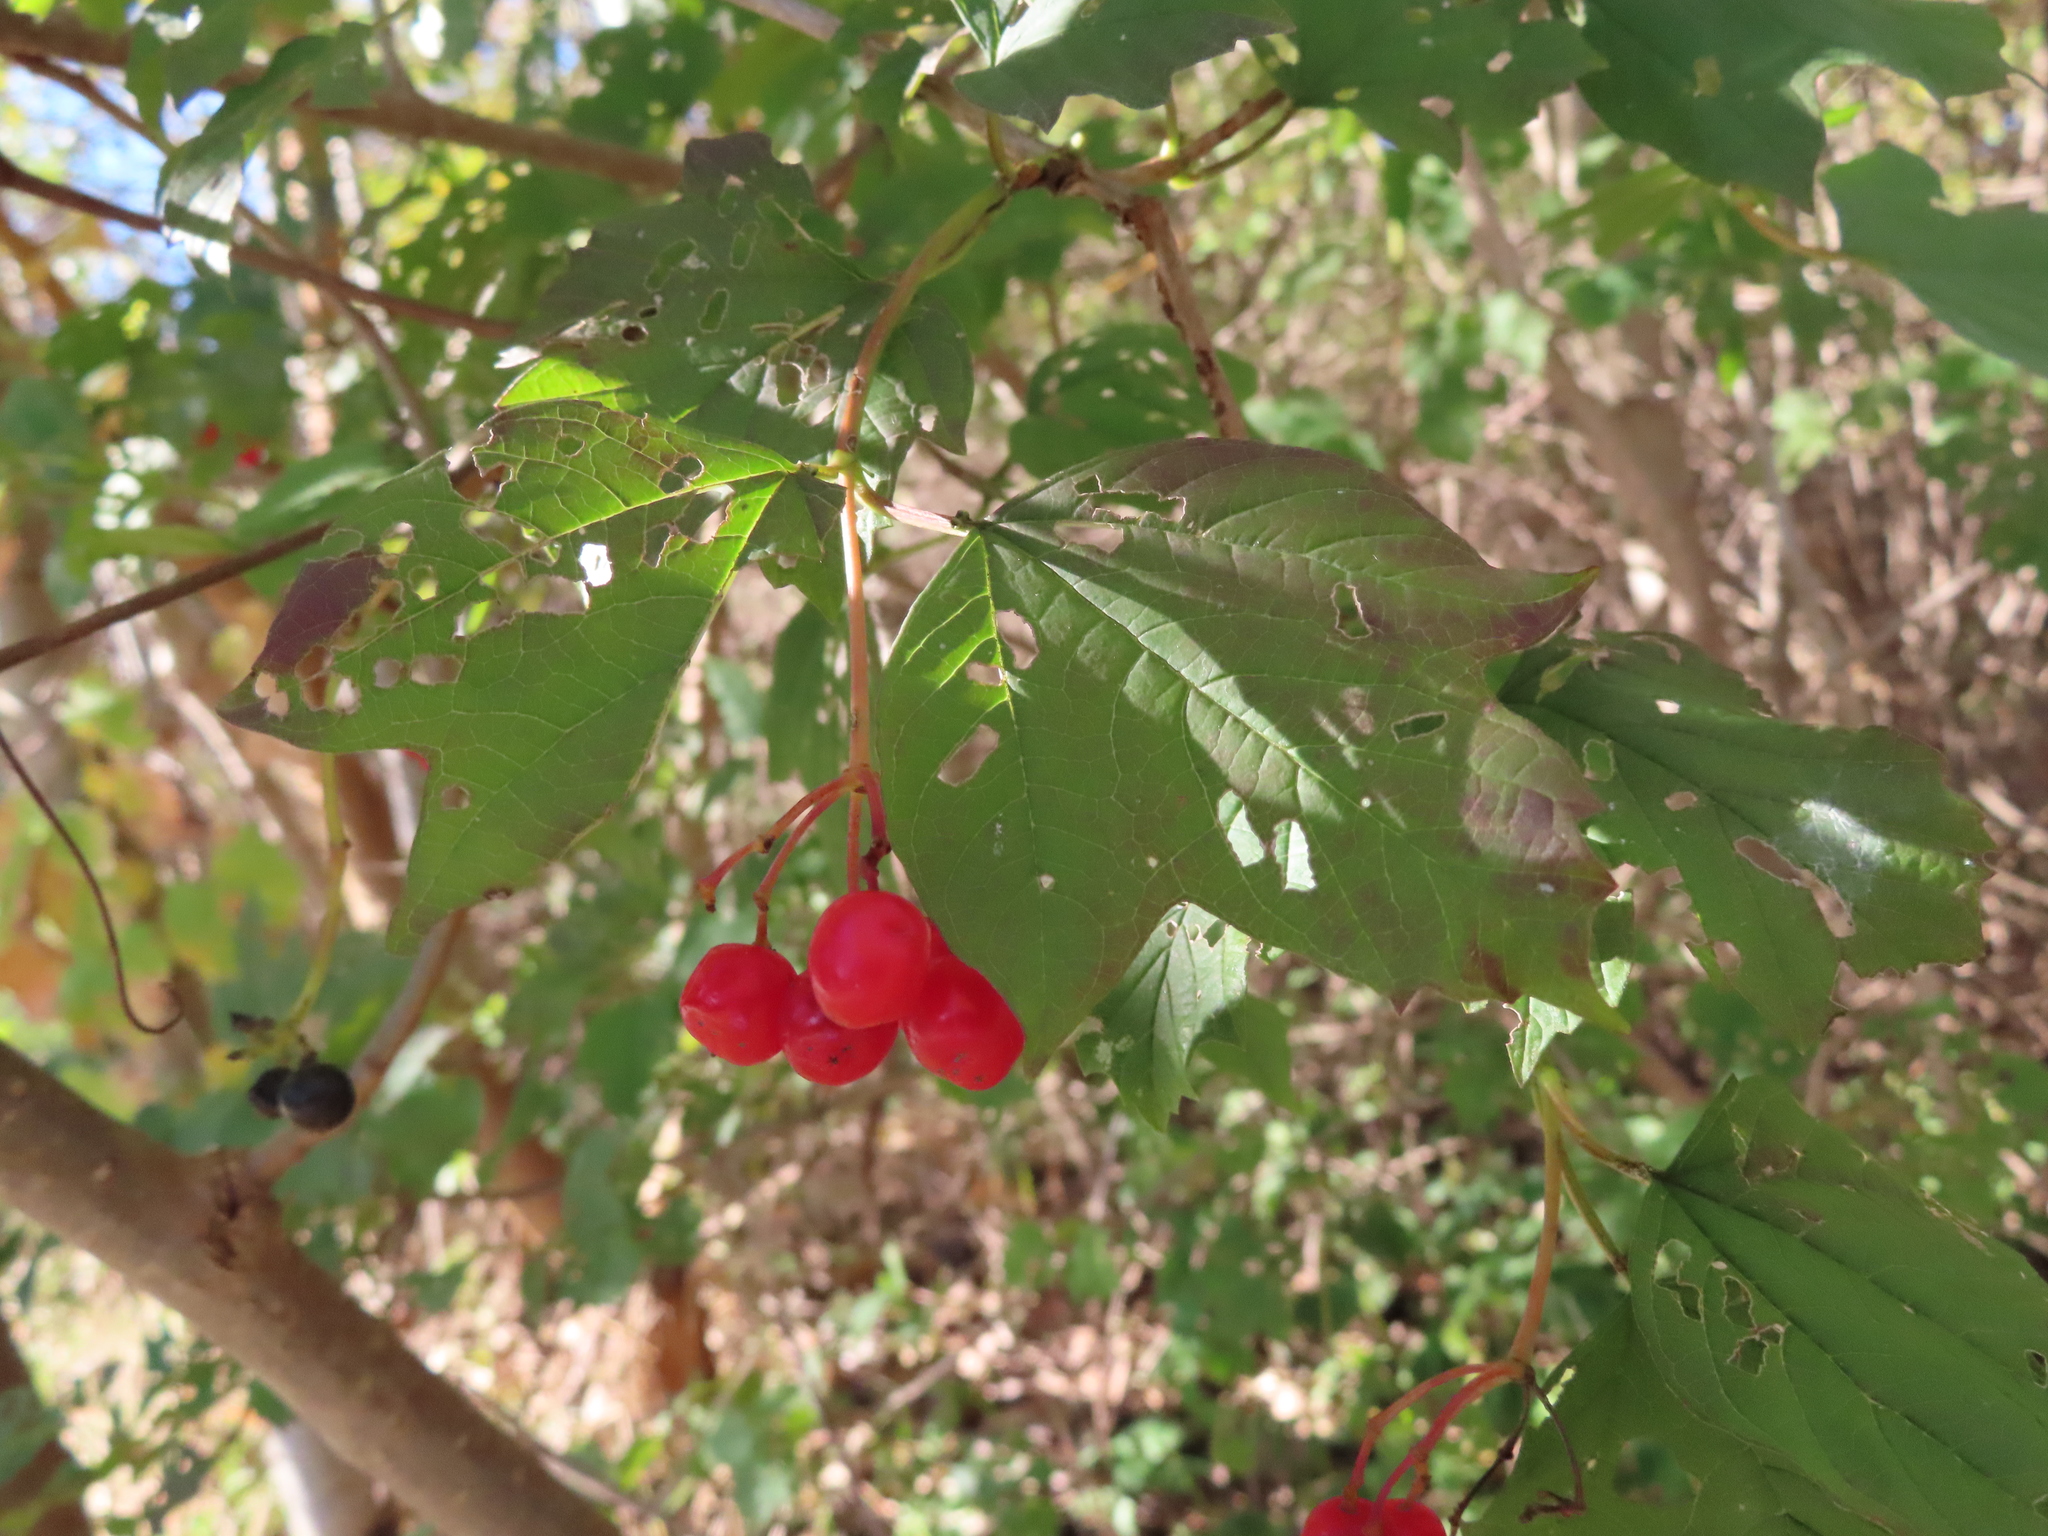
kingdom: Plantae
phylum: Tracheophyta
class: Magnoliopsida
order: Dipsacales
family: Viburnaceae
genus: Viburnum
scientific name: Viburnum opulus
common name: Guelder-rose
